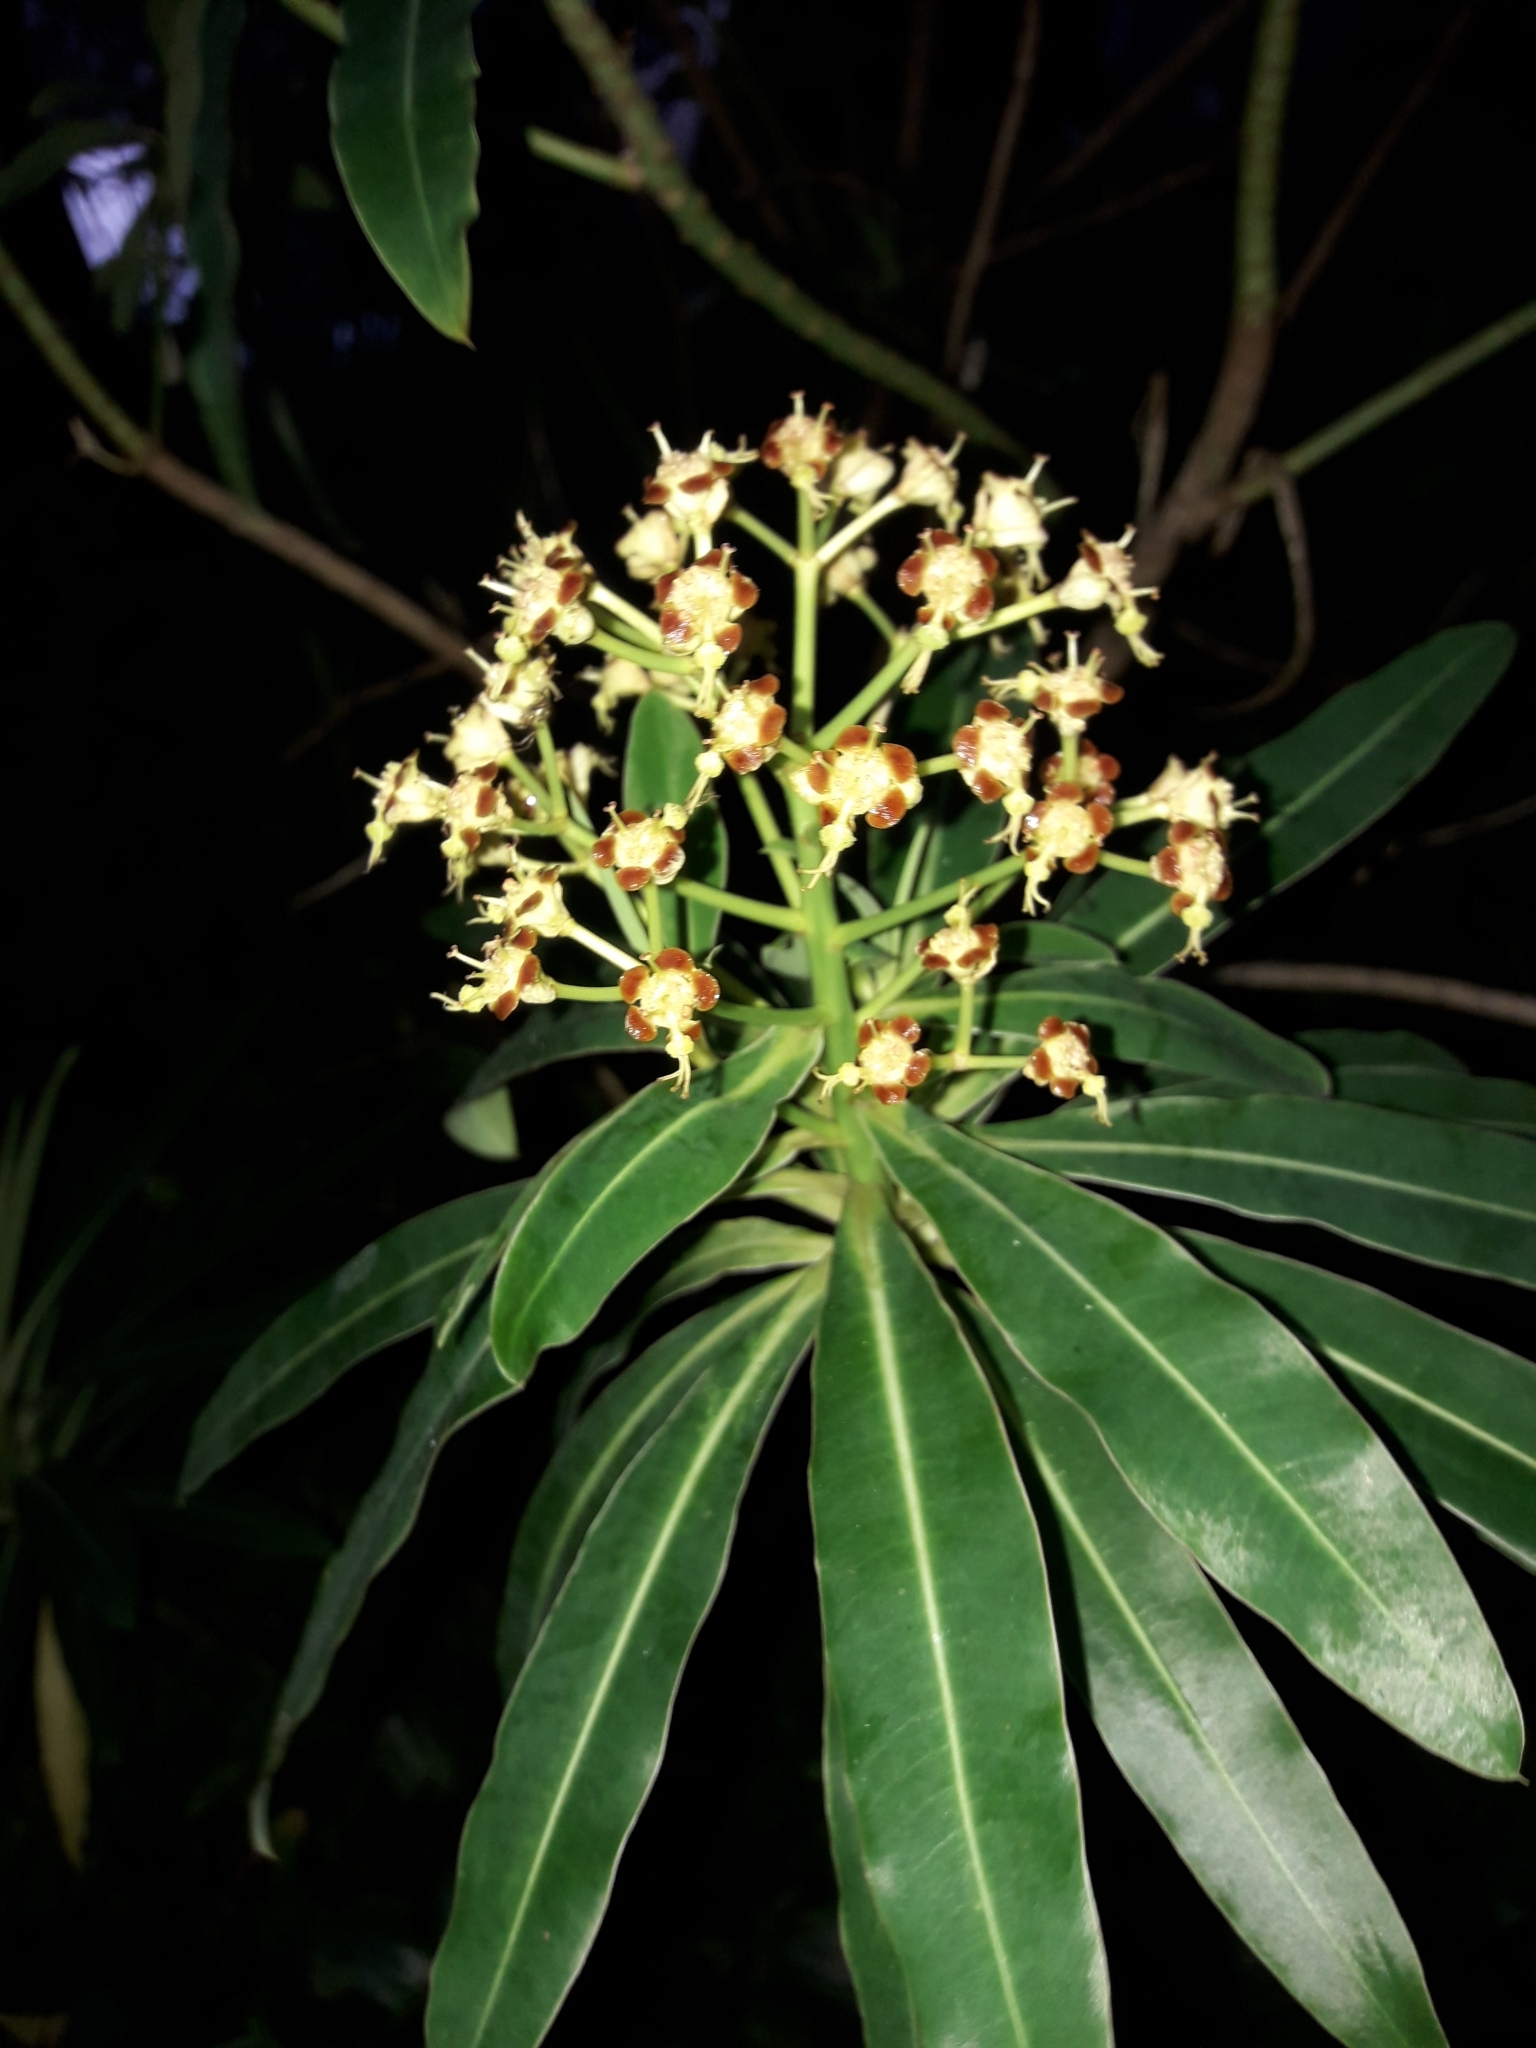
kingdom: Plantae
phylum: Tracheophyta
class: Magnoliopsida
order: Malpighiales
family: Euphorbiaceae
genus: Euphorbia
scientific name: Euphorbia mellifera
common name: Canary spurge
